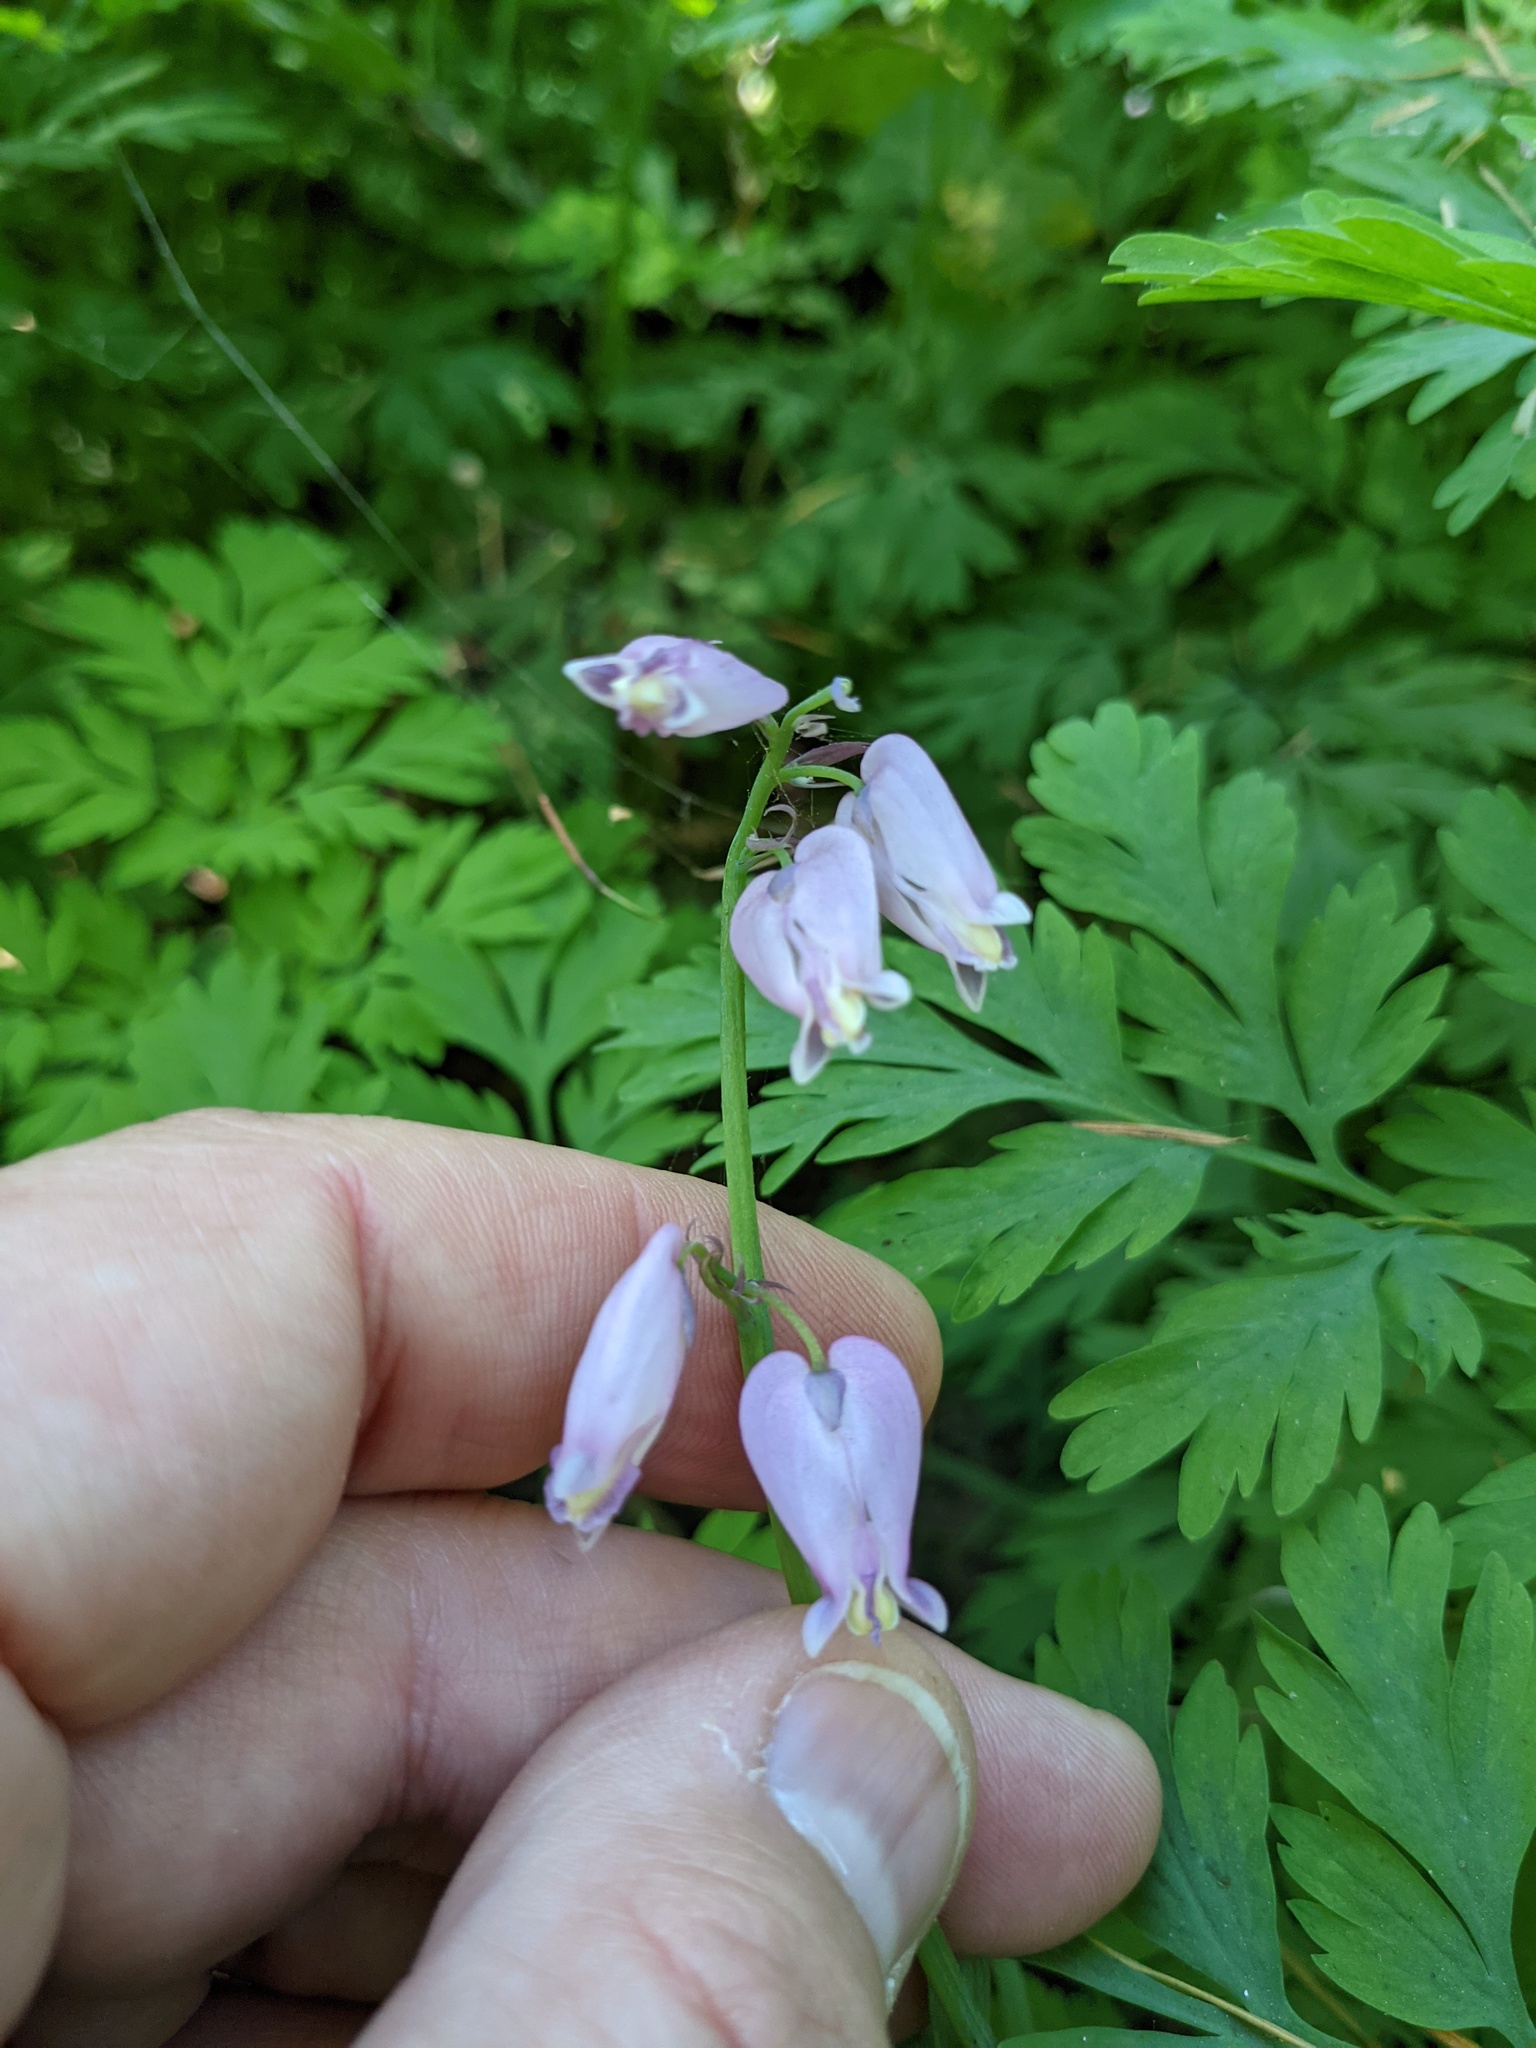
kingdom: Plantae
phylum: Tracheophyta
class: Magnoliopsida
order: Ranunculales
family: Papaveraceae
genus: Dicentra
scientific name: Dicentra formosa
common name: Bleeding-heart
